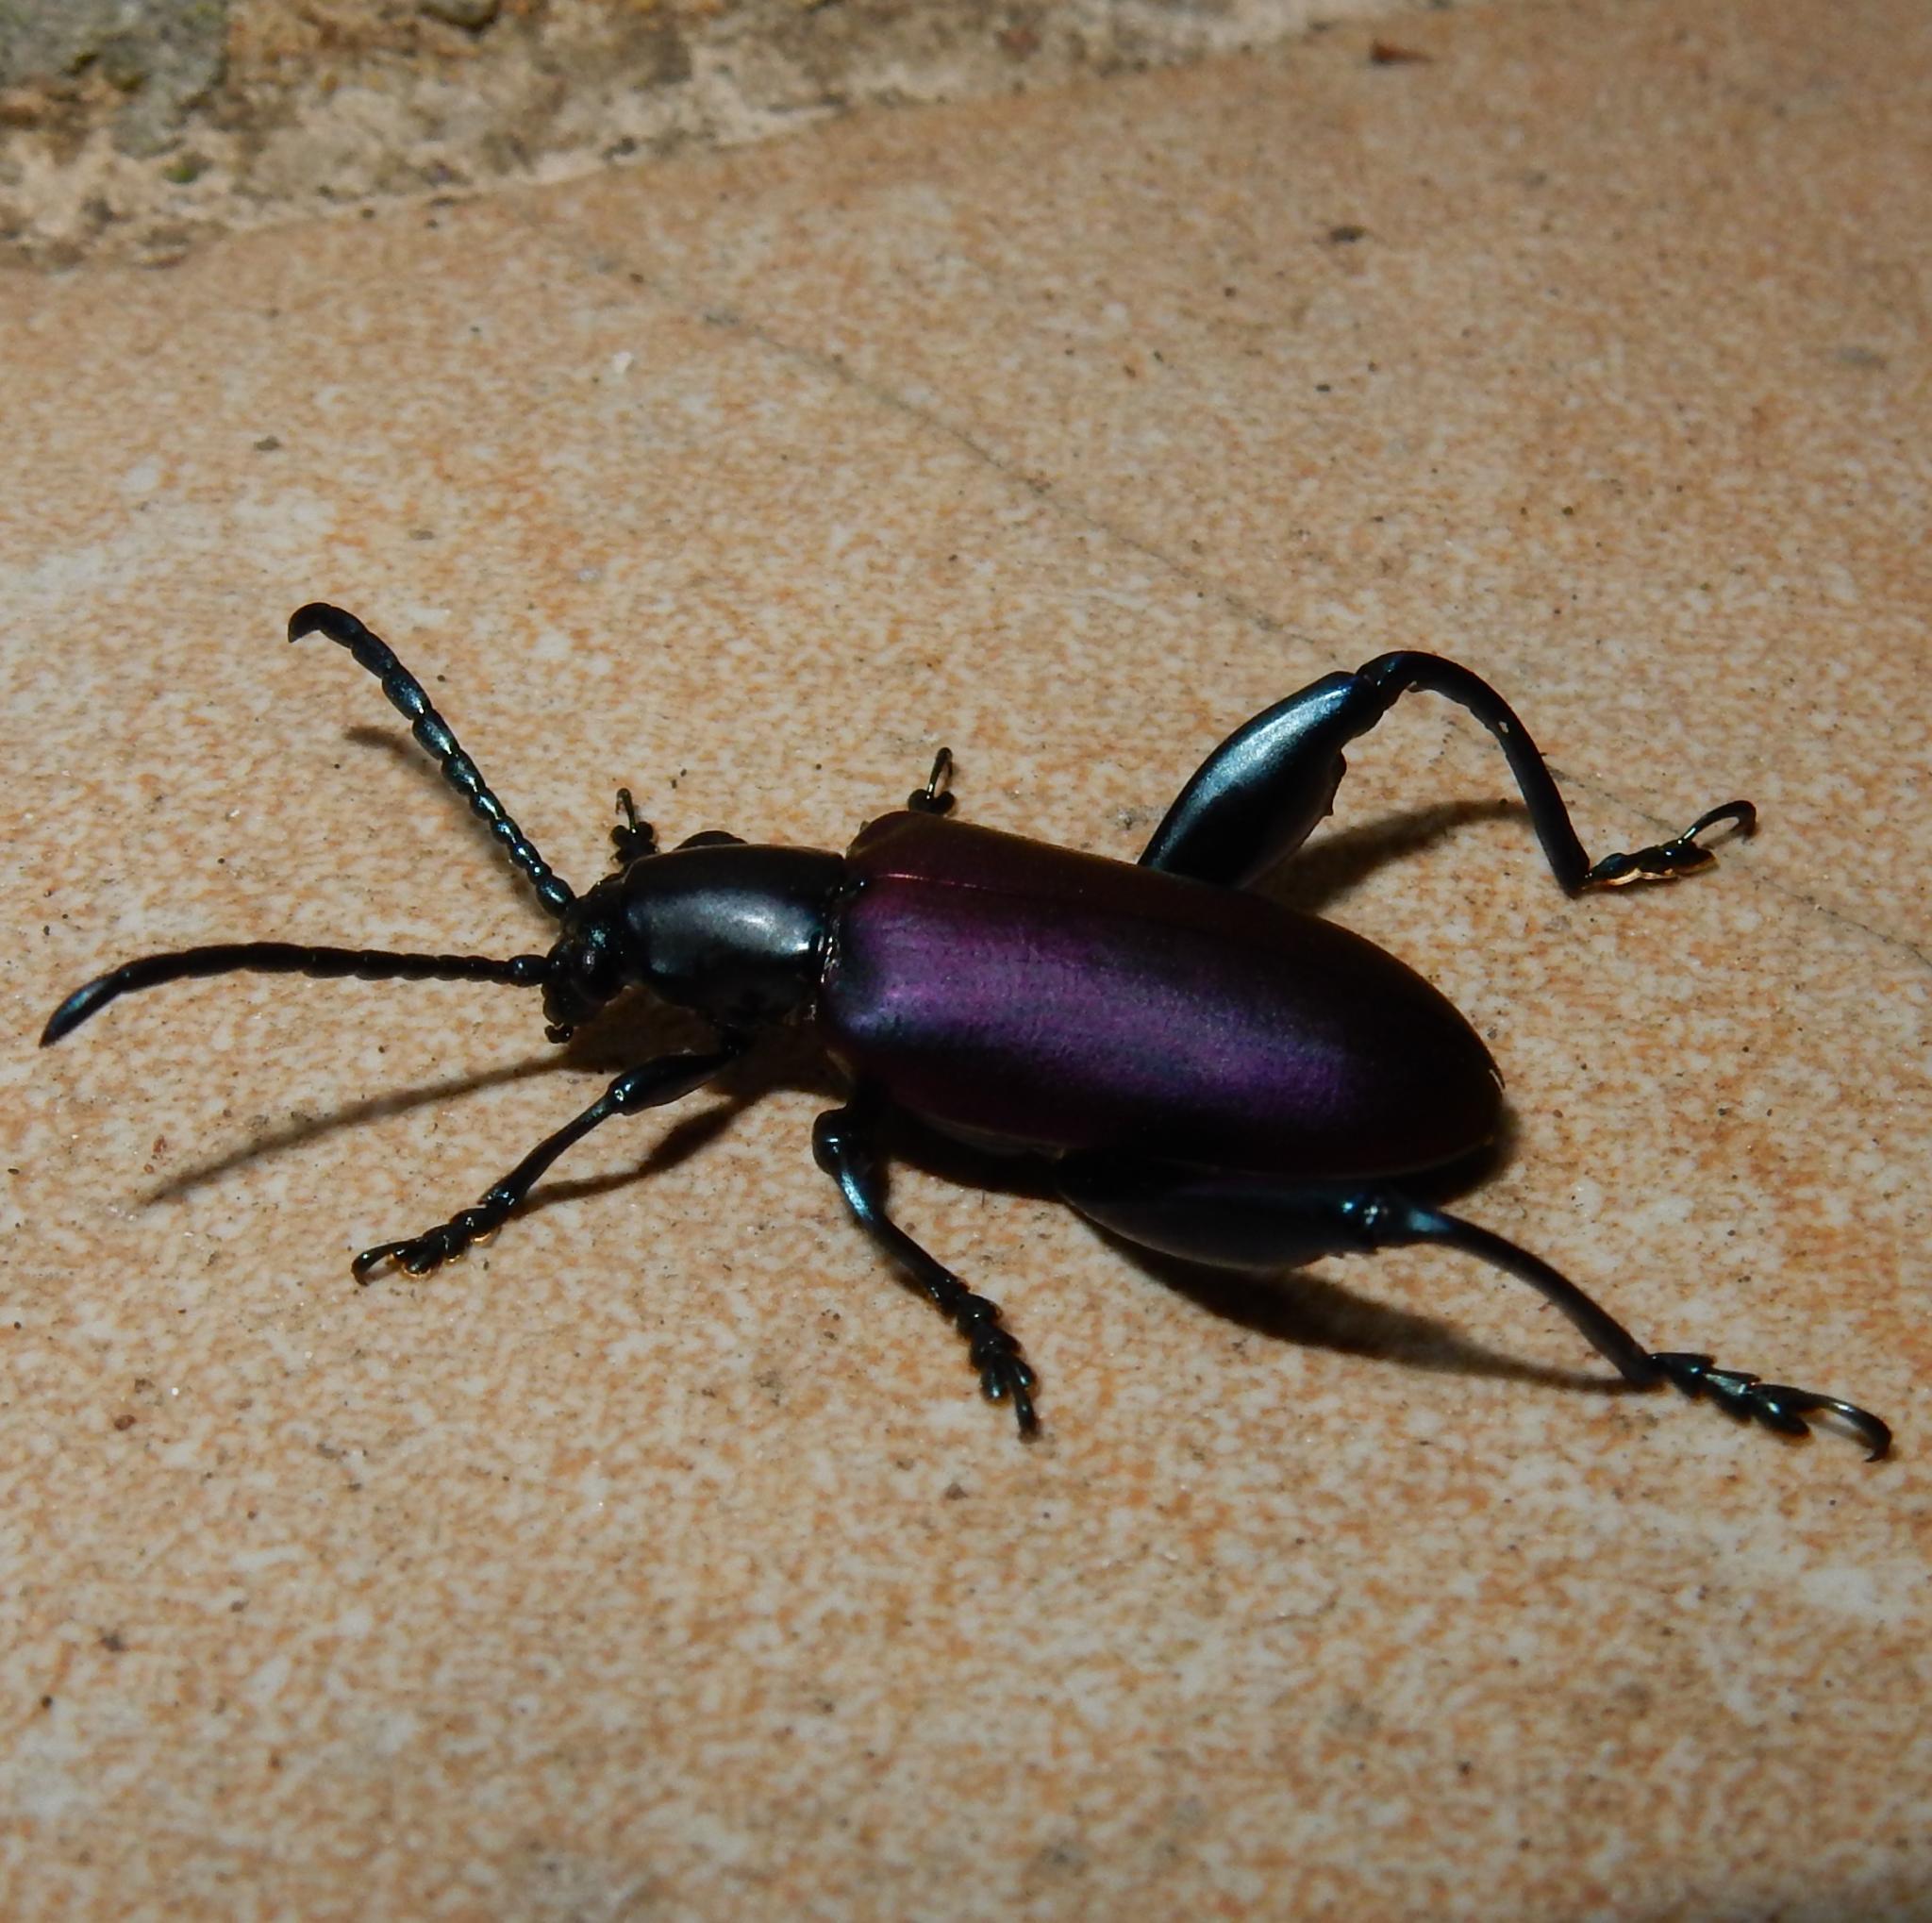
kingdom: Animalia
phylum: Arthropoda
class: Insecta
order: Coleoptera
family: Chrysomelidae
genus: Sagra
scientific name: Sagra
